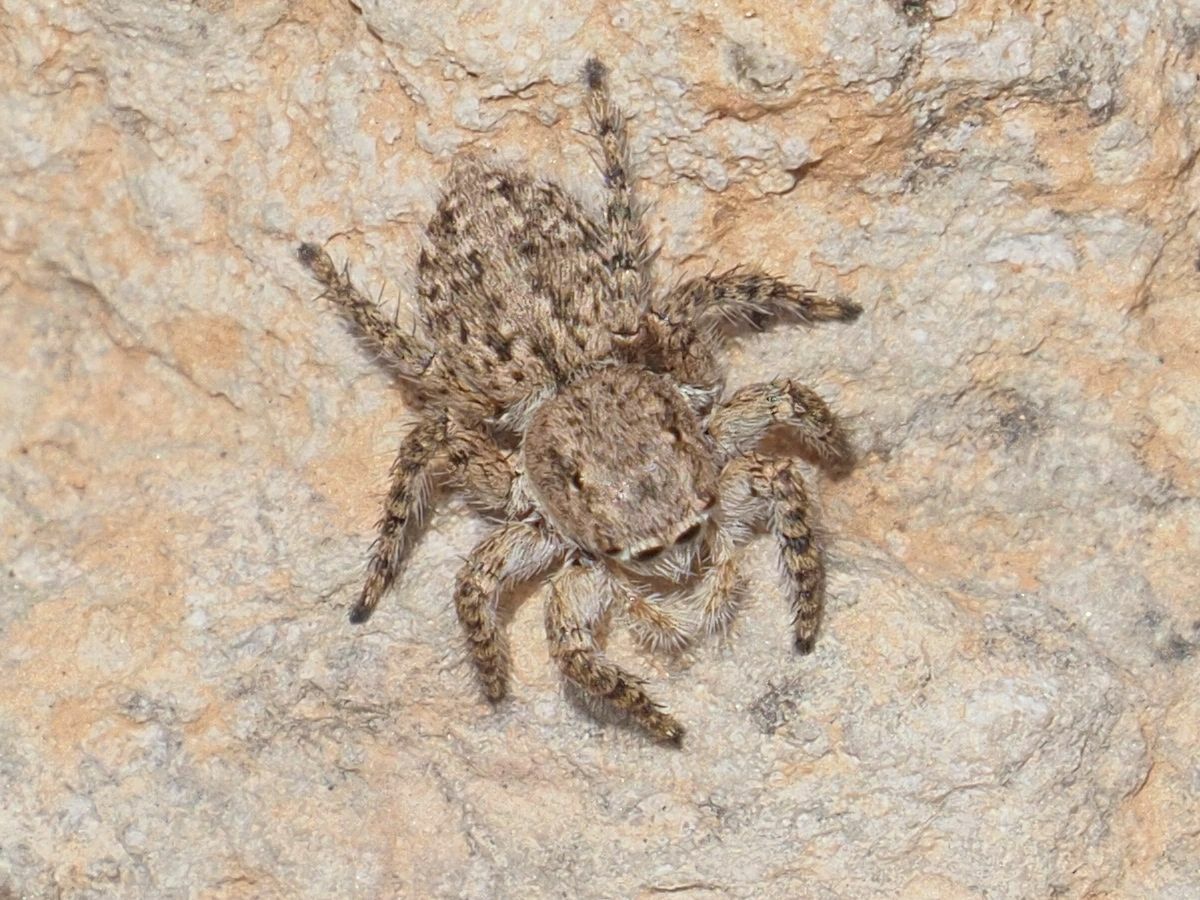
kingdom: Animalia
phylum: Arthropoda
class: Arachnida
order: Araneae
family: Salticidae
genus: Aelurillus
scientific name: Aelurillus lucasi
